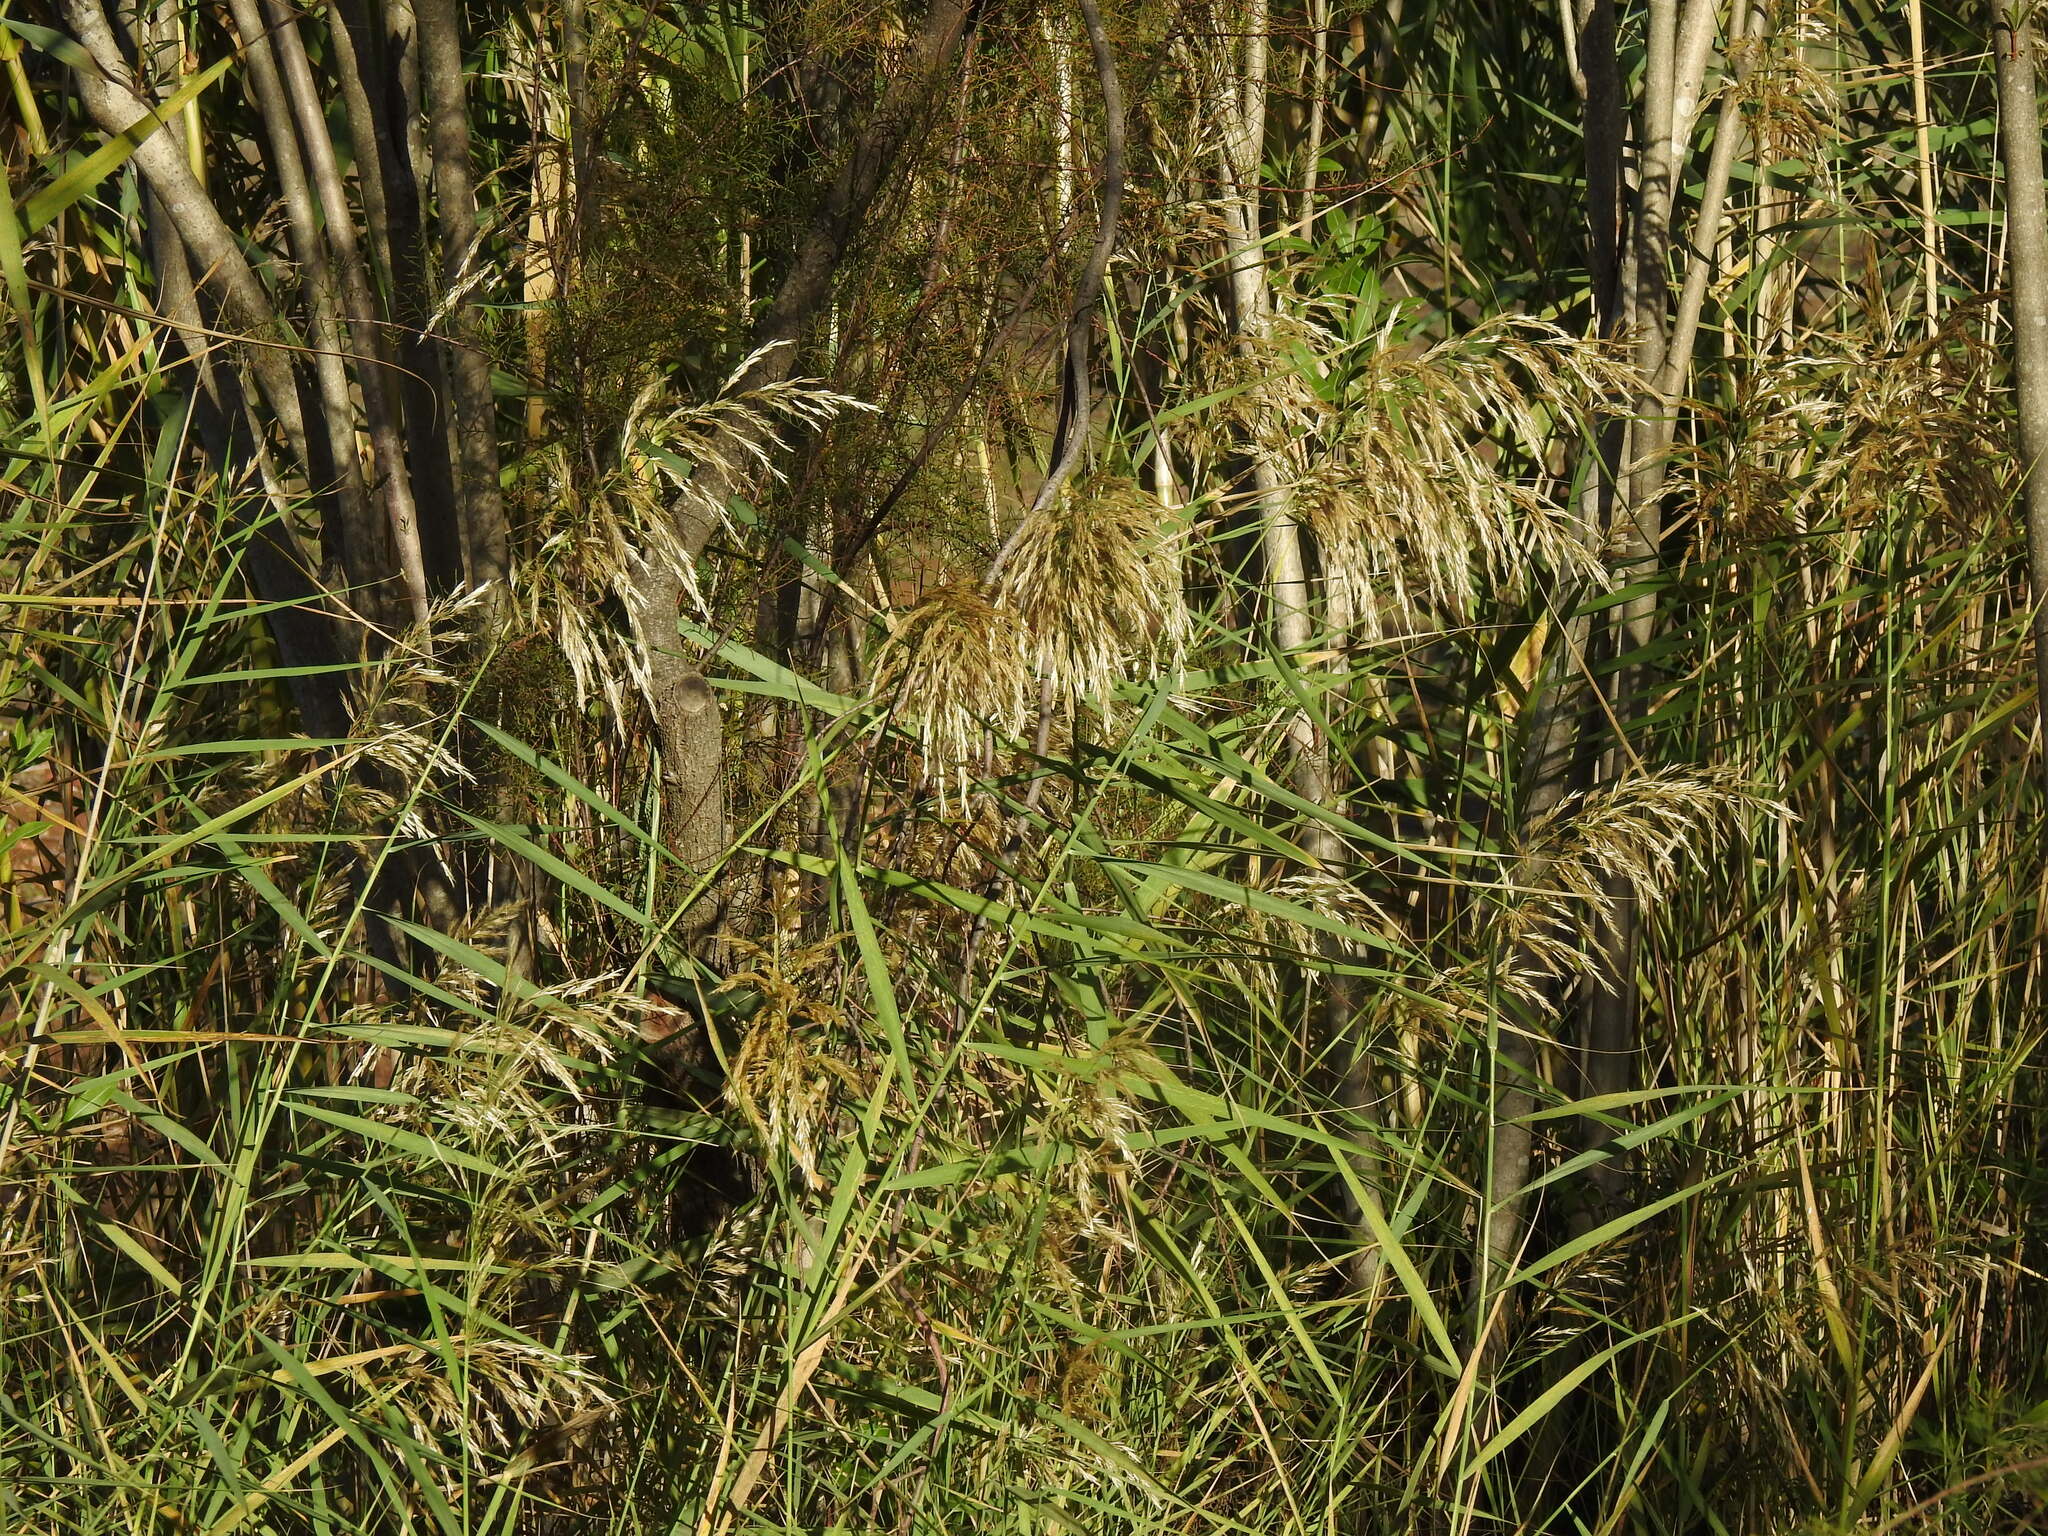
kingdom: Plantae
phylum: Tracheophyta
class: Liliopsida
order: Poales
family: Poaceae
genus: Phragmites
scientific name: Phragmites australis
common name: Common reed
